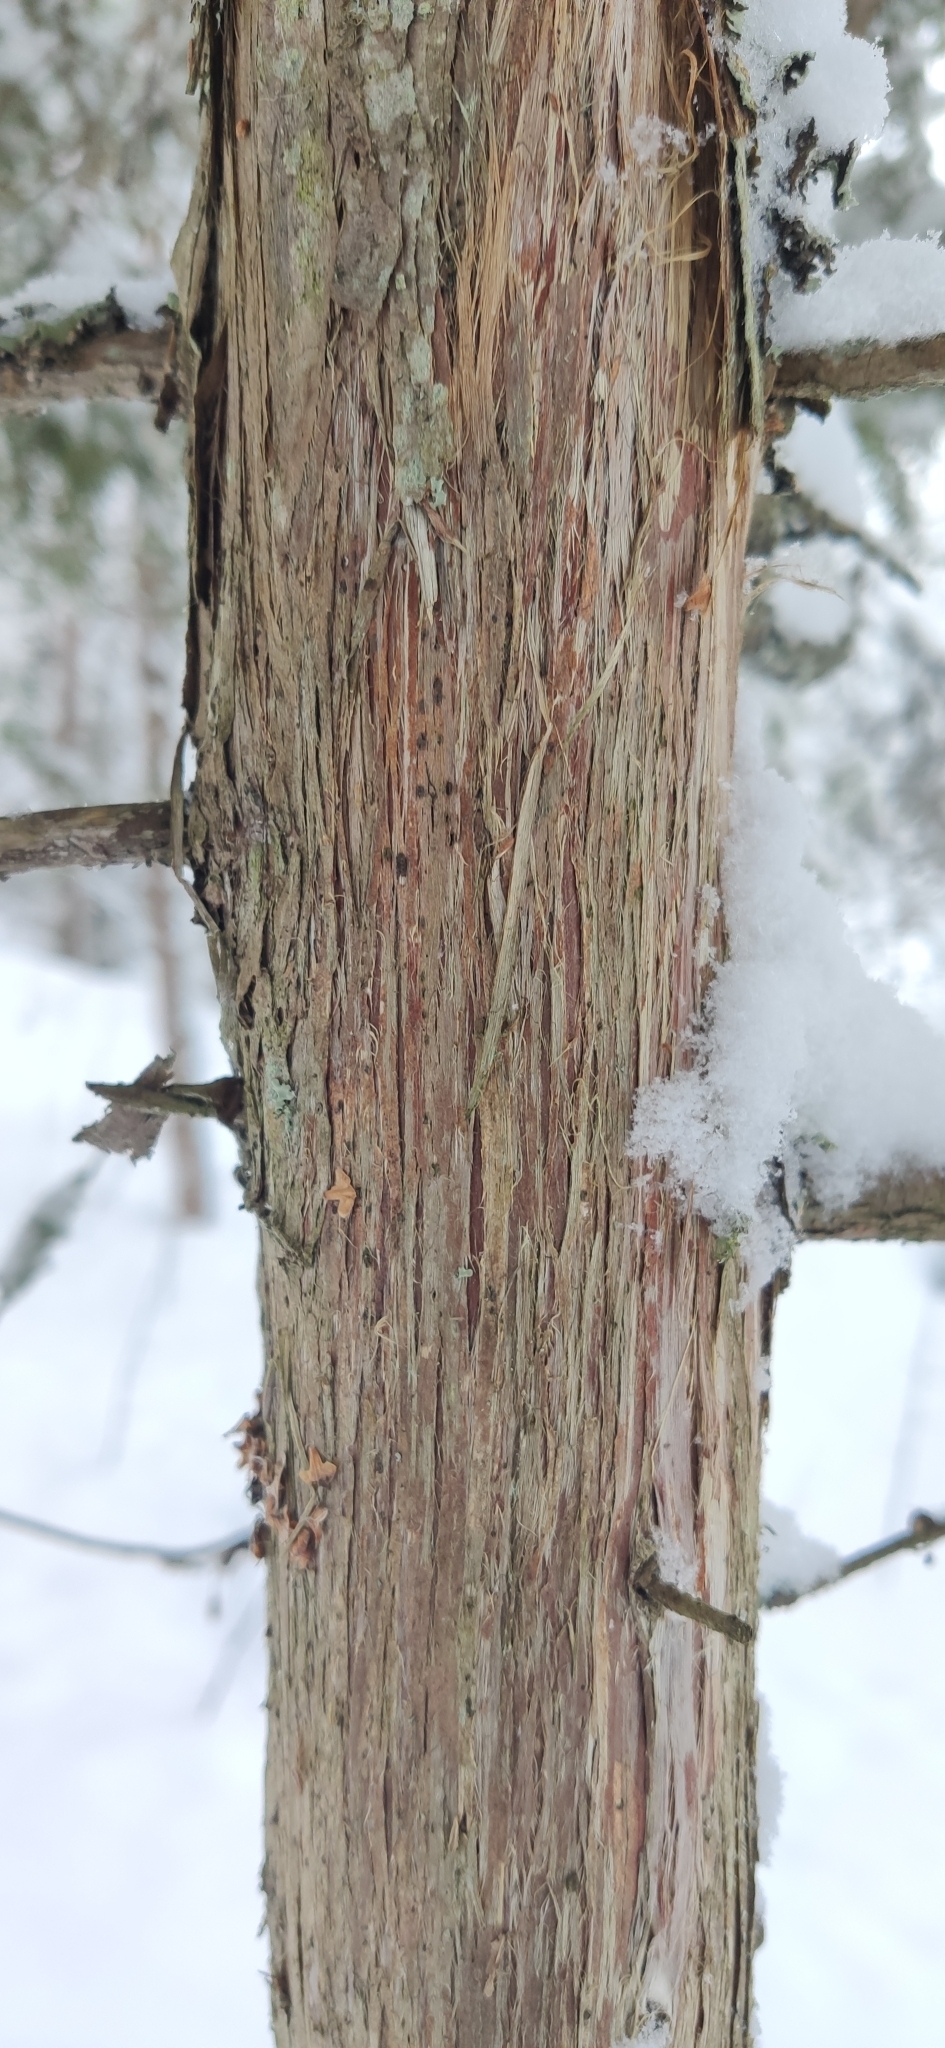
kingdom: Plantae
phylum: Tracheophyta
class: Pinopsida
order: Pinales
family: Cupressaceae
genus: Juniperus
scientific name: Juniperus communis
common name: Common juniper
